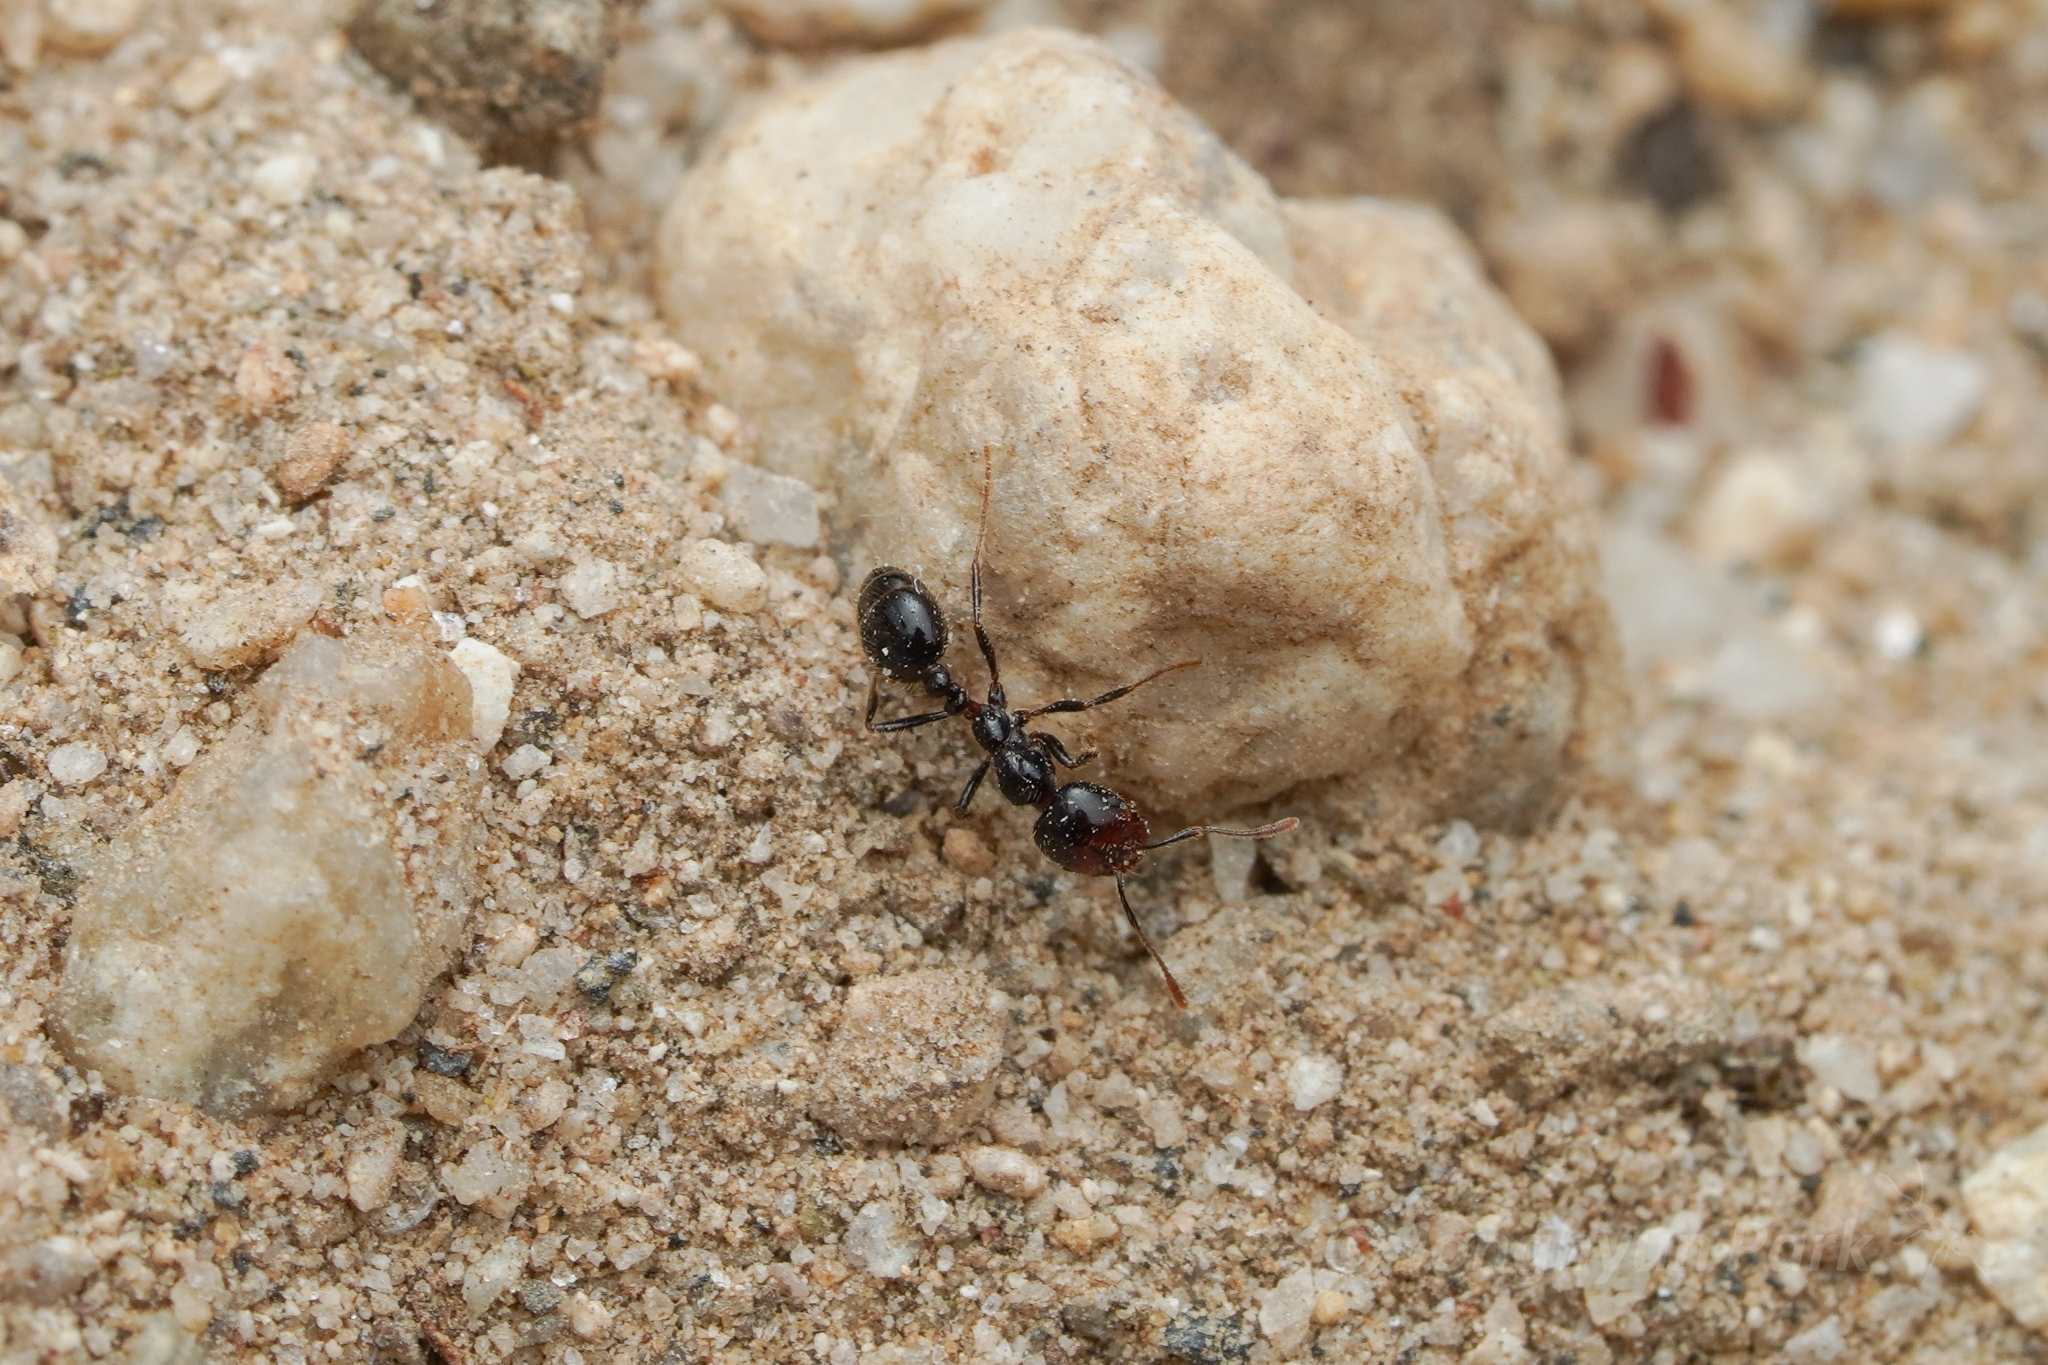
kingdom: Animalia
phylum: Arthropoda
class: Insecta
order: Hymenoptera
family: Formicidae
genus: Solenopsis
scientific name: Solenopsis xyloni
